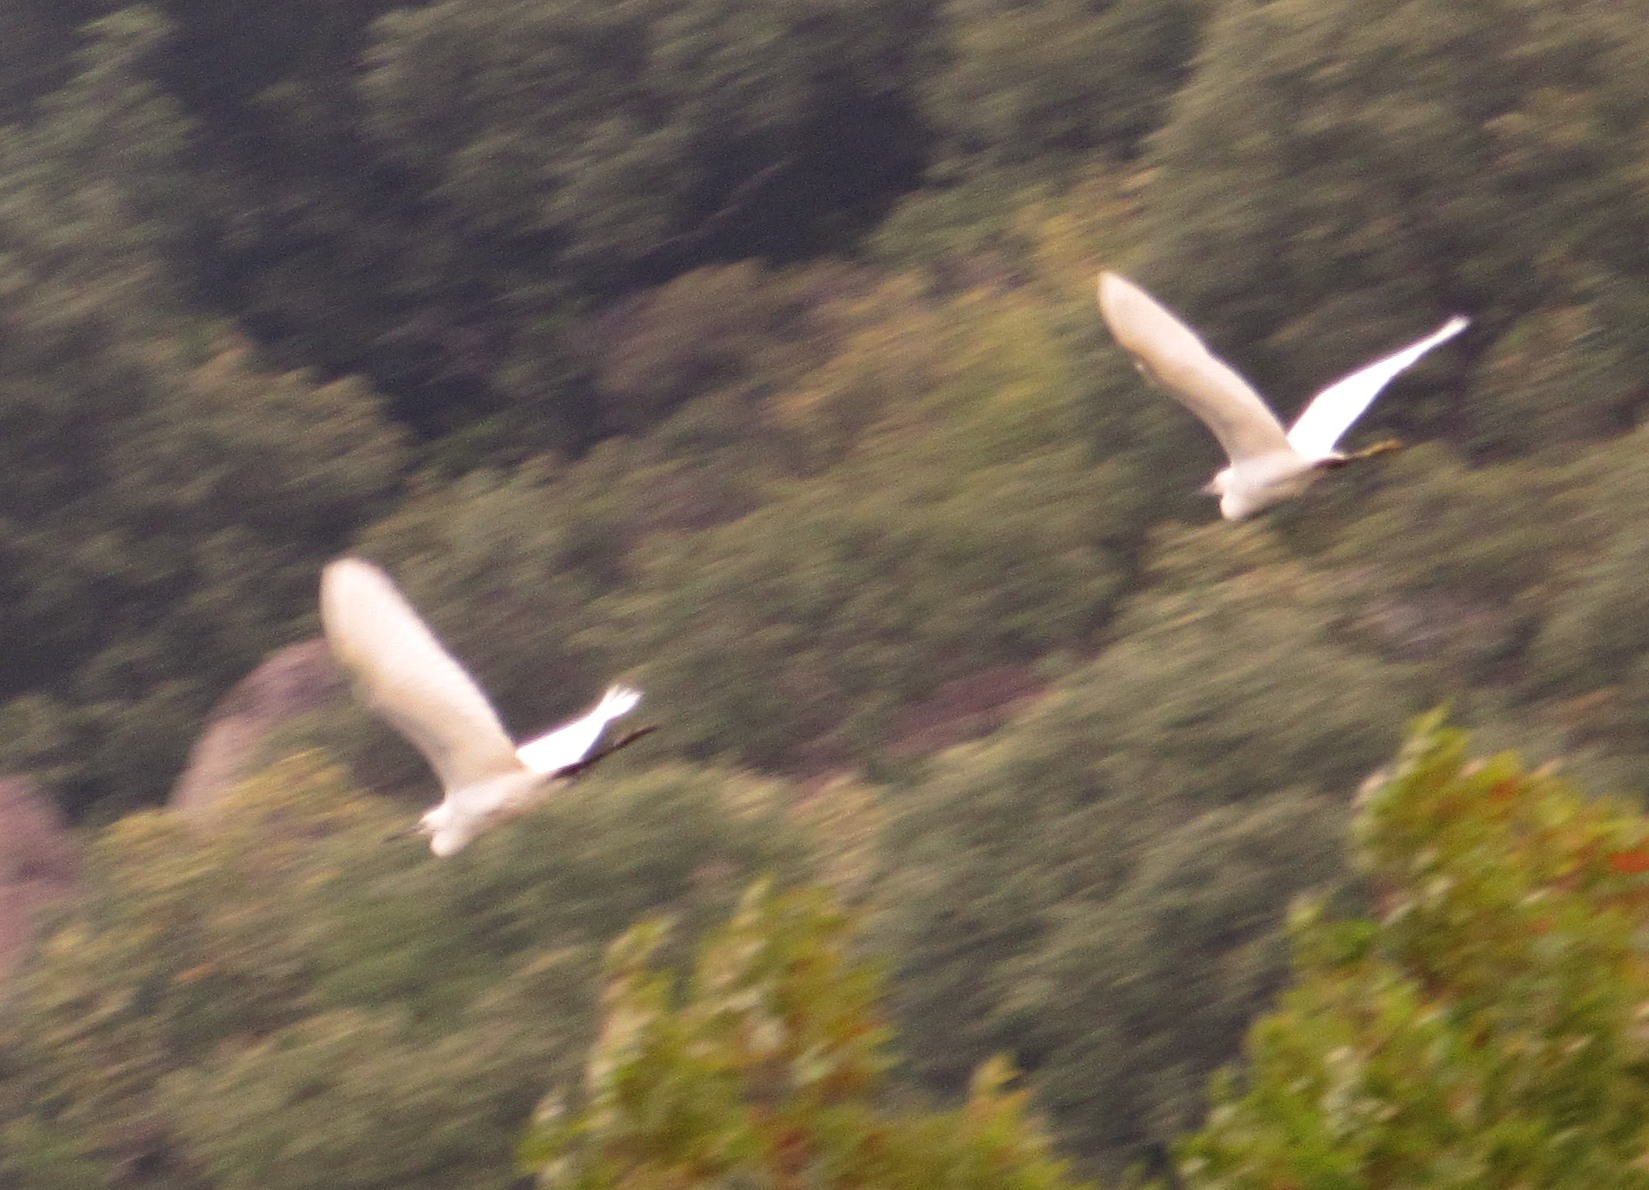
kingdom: Animalia
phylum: Chordata
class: Aves
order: Pelecaniformes
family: Ardeidae
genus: Egretta
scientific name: Egretta garzetta
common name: Little egret
